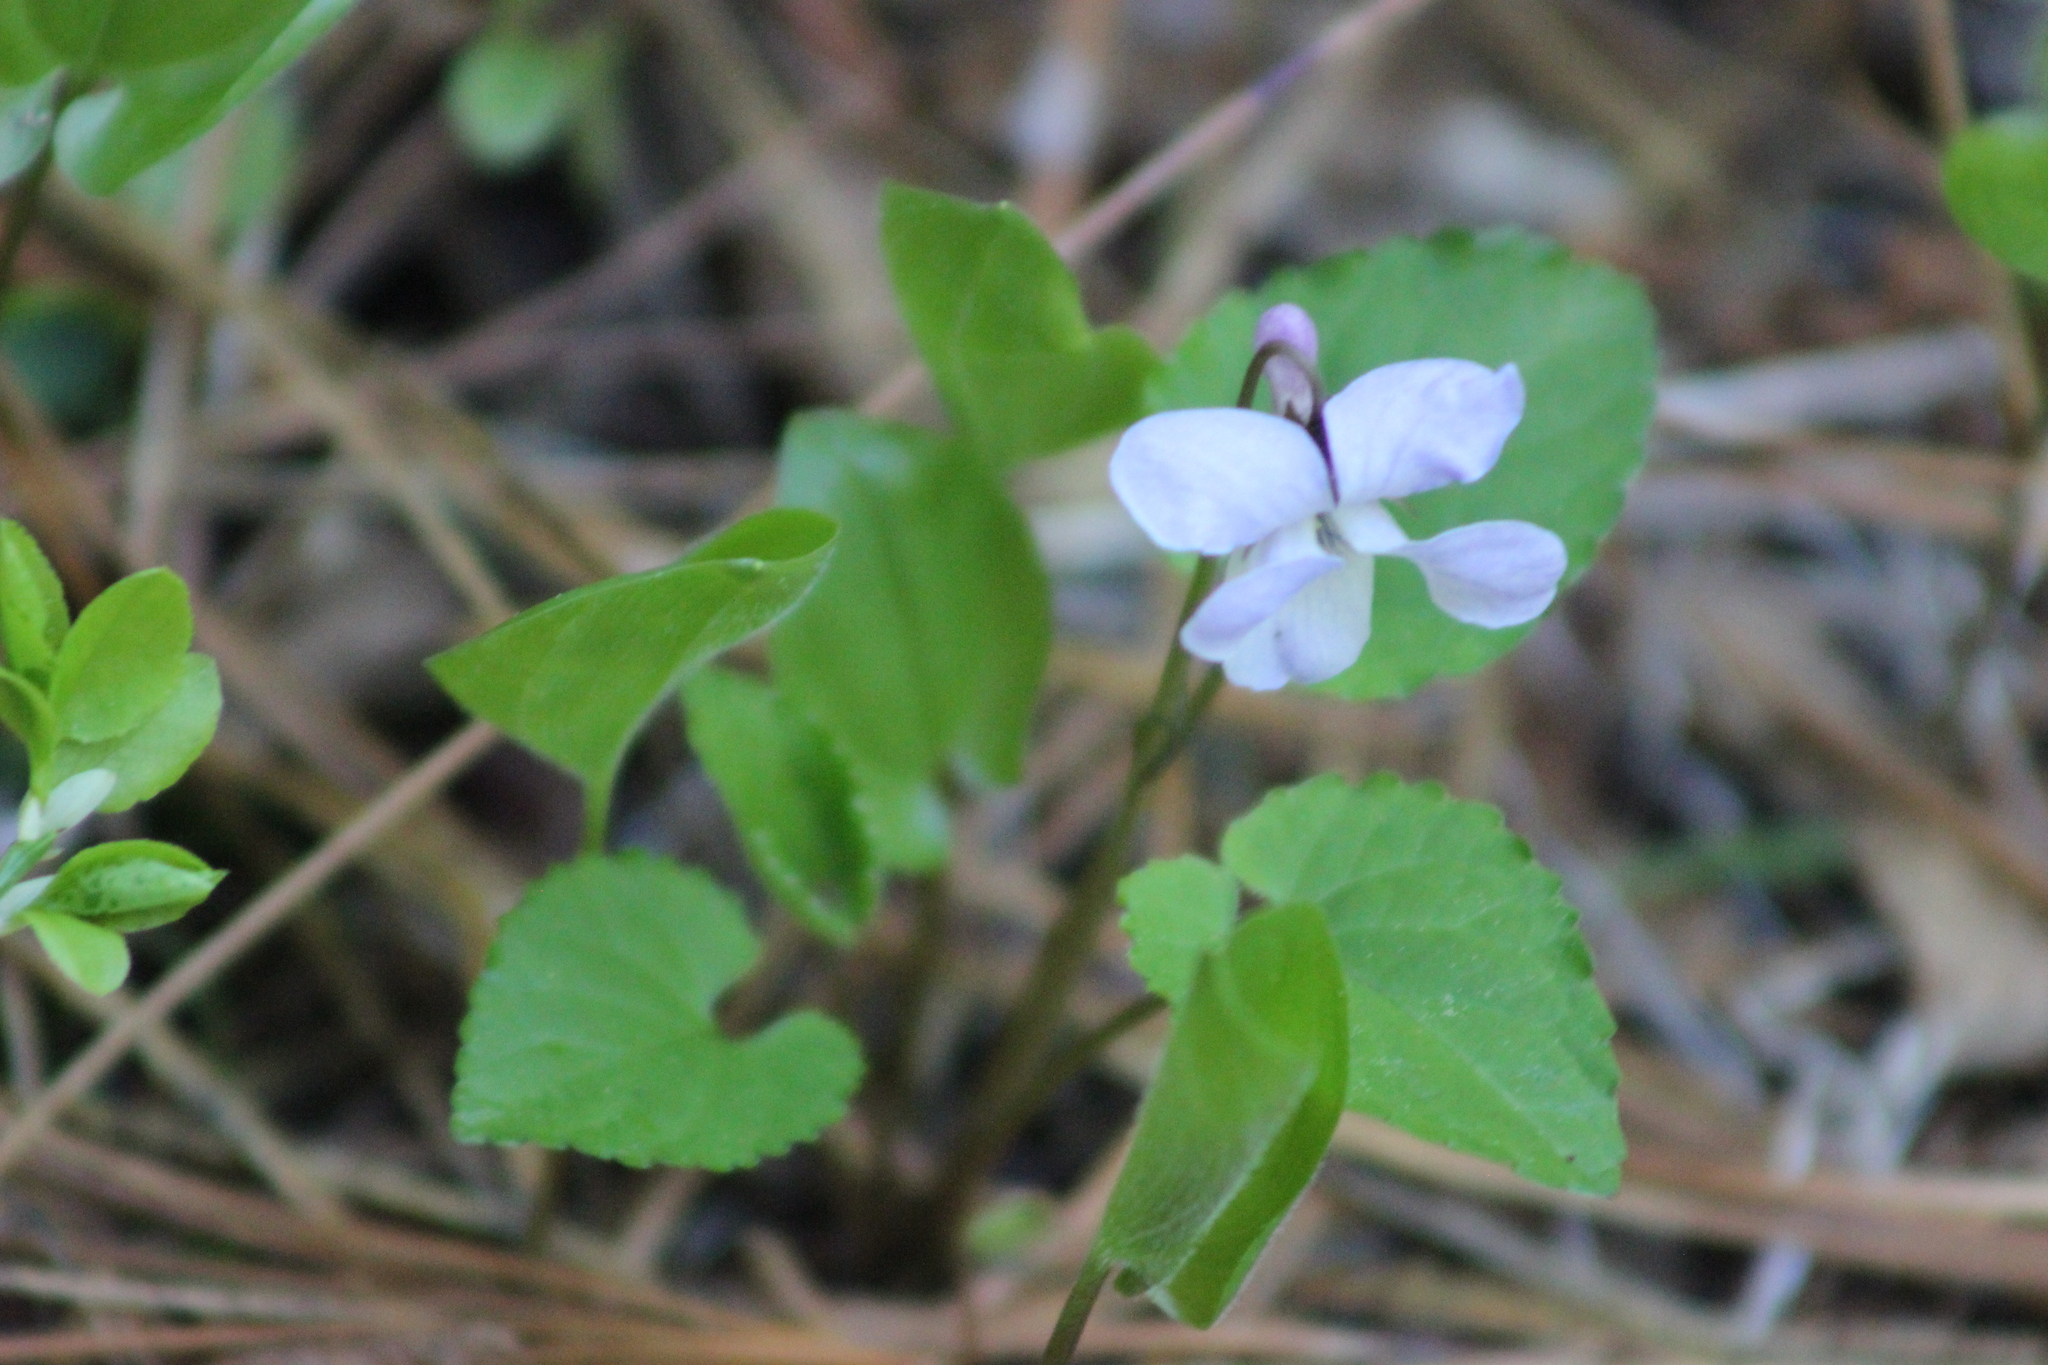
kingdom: Plantae
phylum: Tracheophyta
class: Magnoliopsida
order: Malpighiales
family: Violaceae
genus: Viola
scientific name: Viola selkirkii
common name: Selkirk's violet
